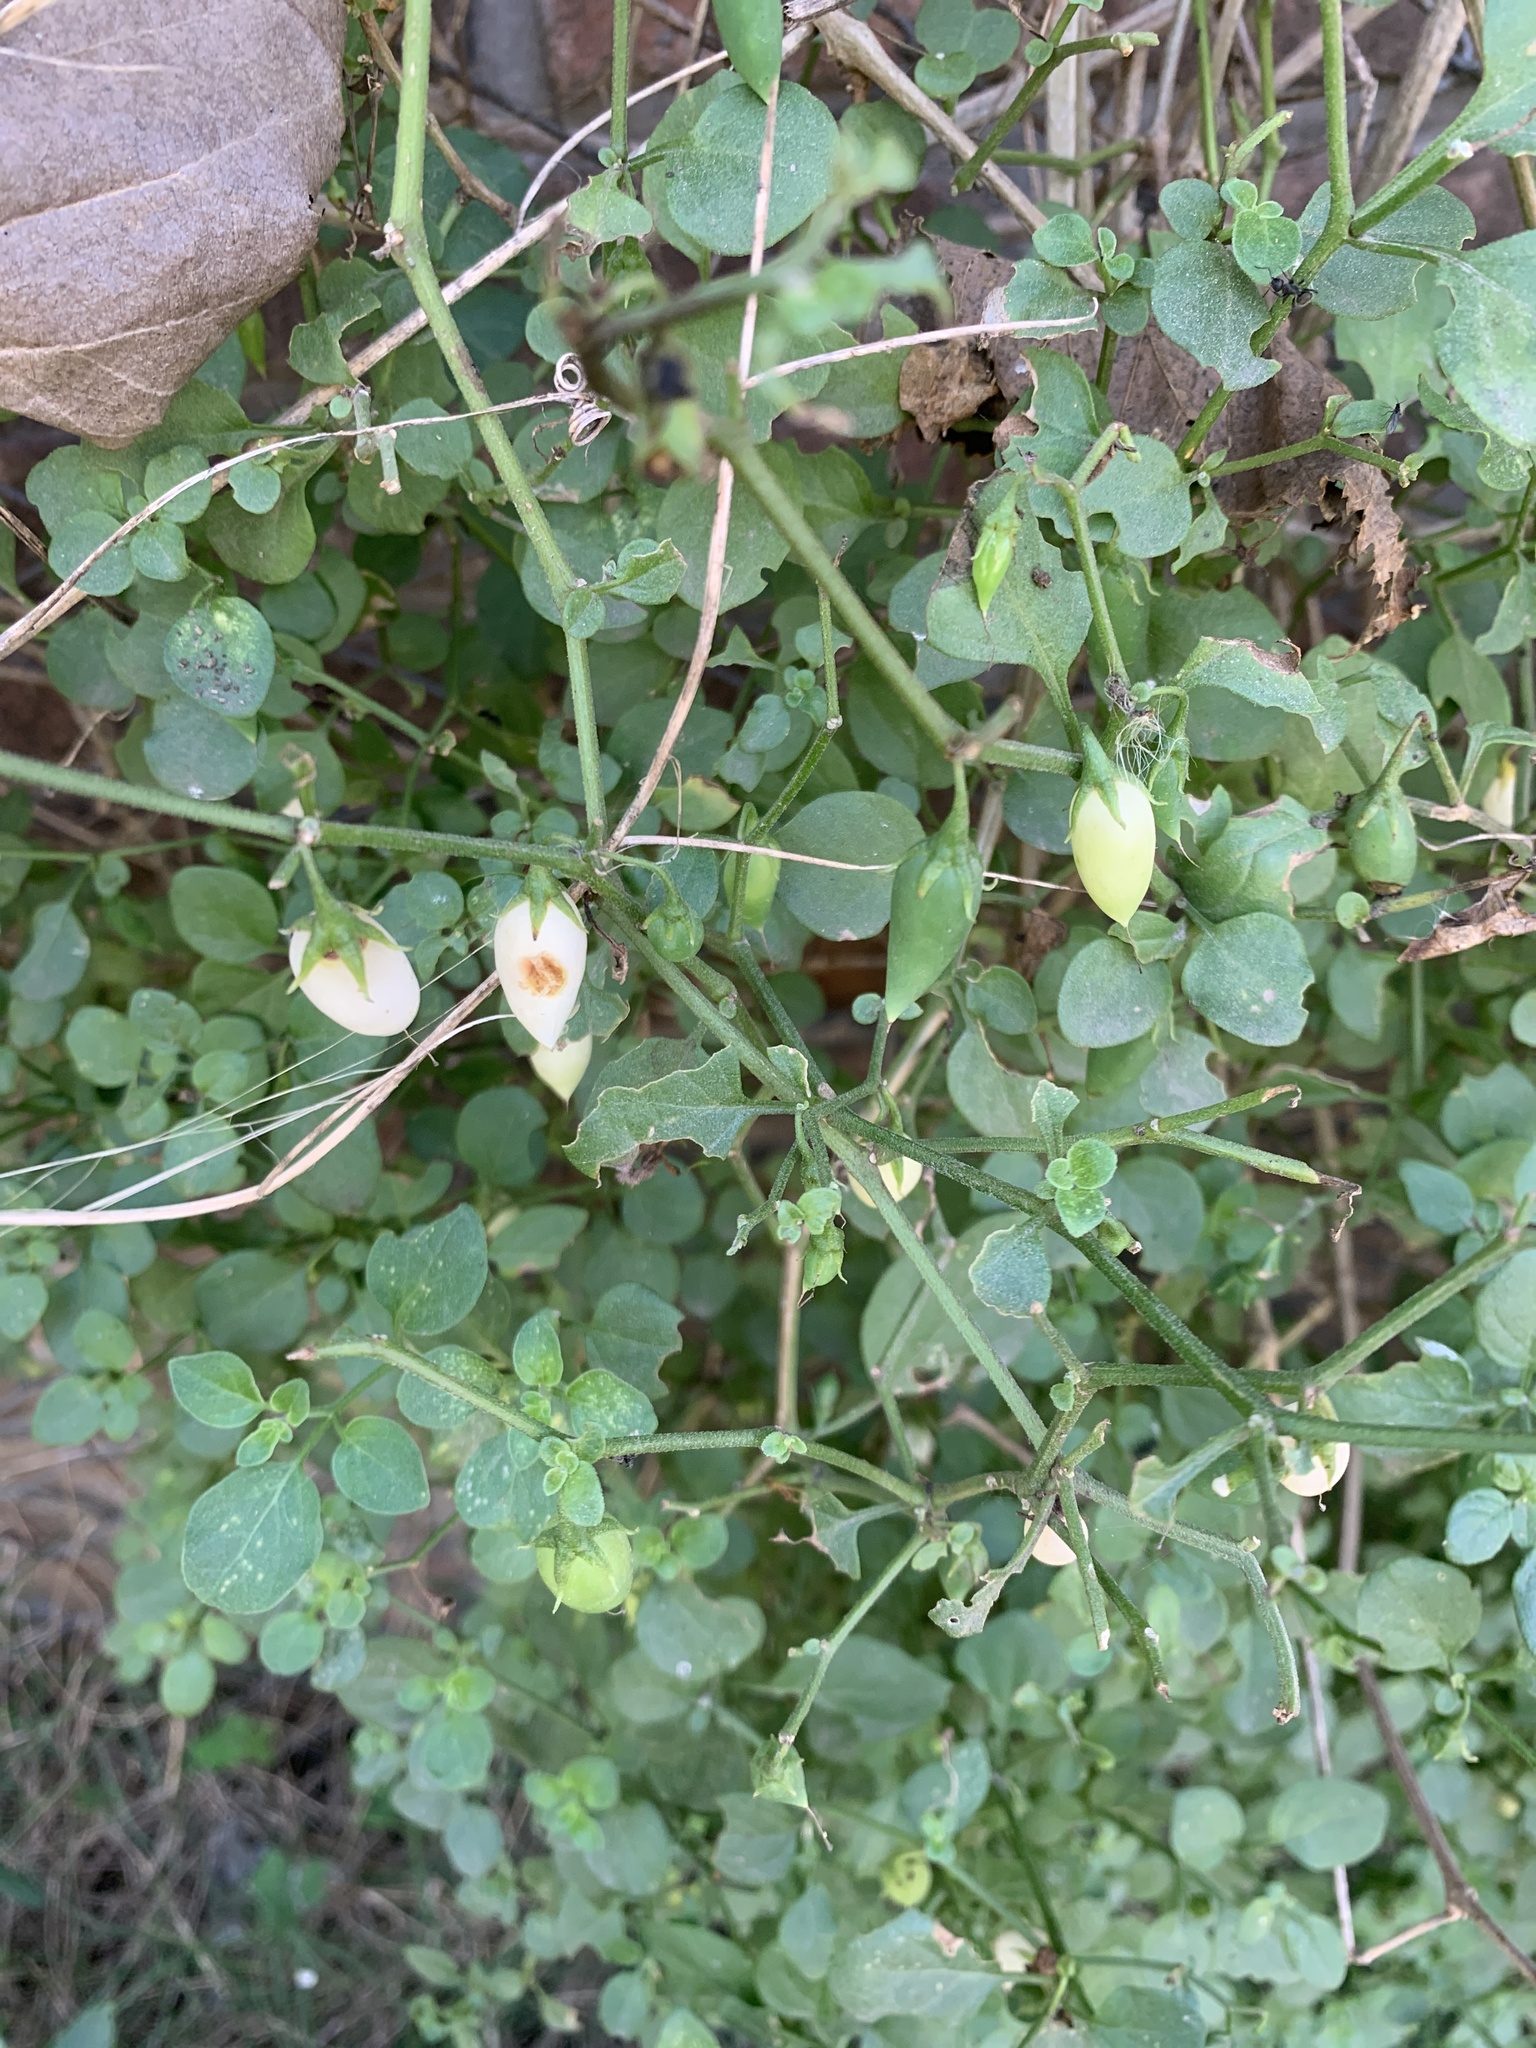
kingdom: Plantae
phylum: Tracheophyta
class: Magnoliopsida
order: Solanales
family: Solanaceae
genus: Salpichroa
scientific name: Salpichroa origanifolia
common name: Lily-of-the-valley-vine
